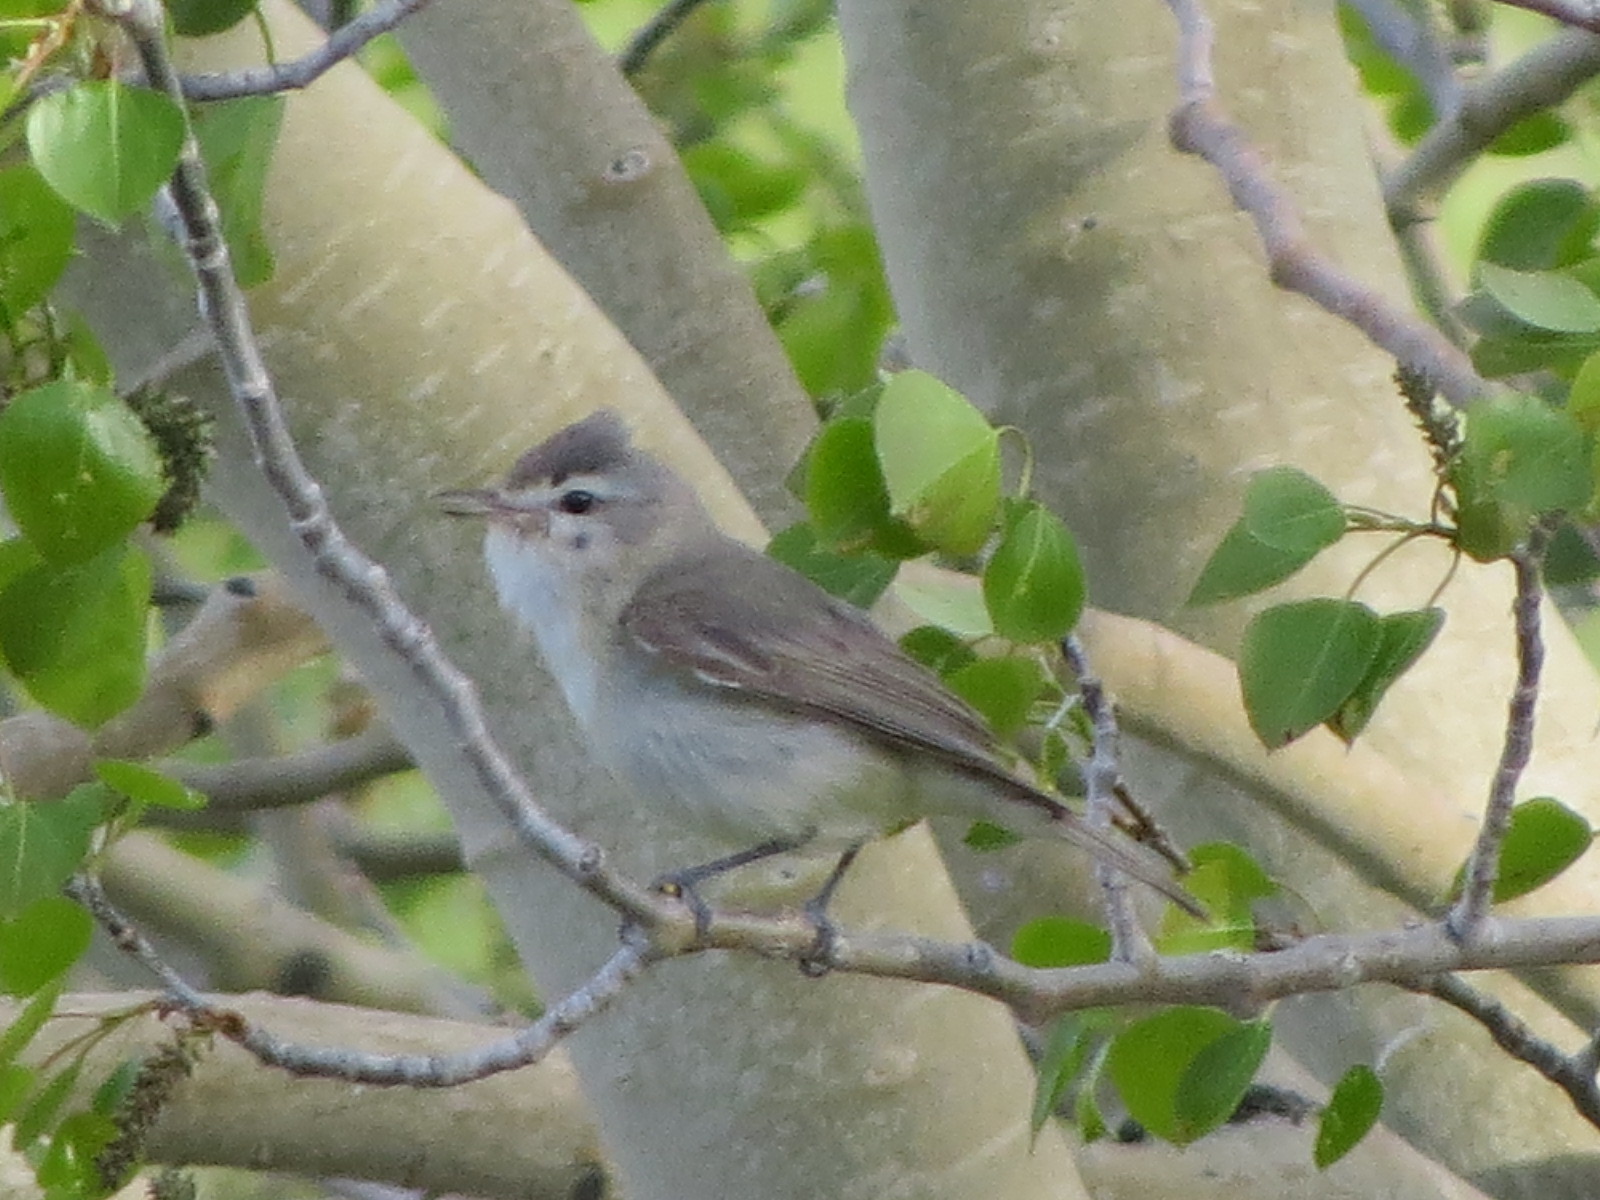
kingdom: Animalia
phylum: Chordata
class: Aves
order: Passeriformes
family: Vireonidae
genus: Vireo
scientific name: Vireo gilvus
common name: Warbling vireo
